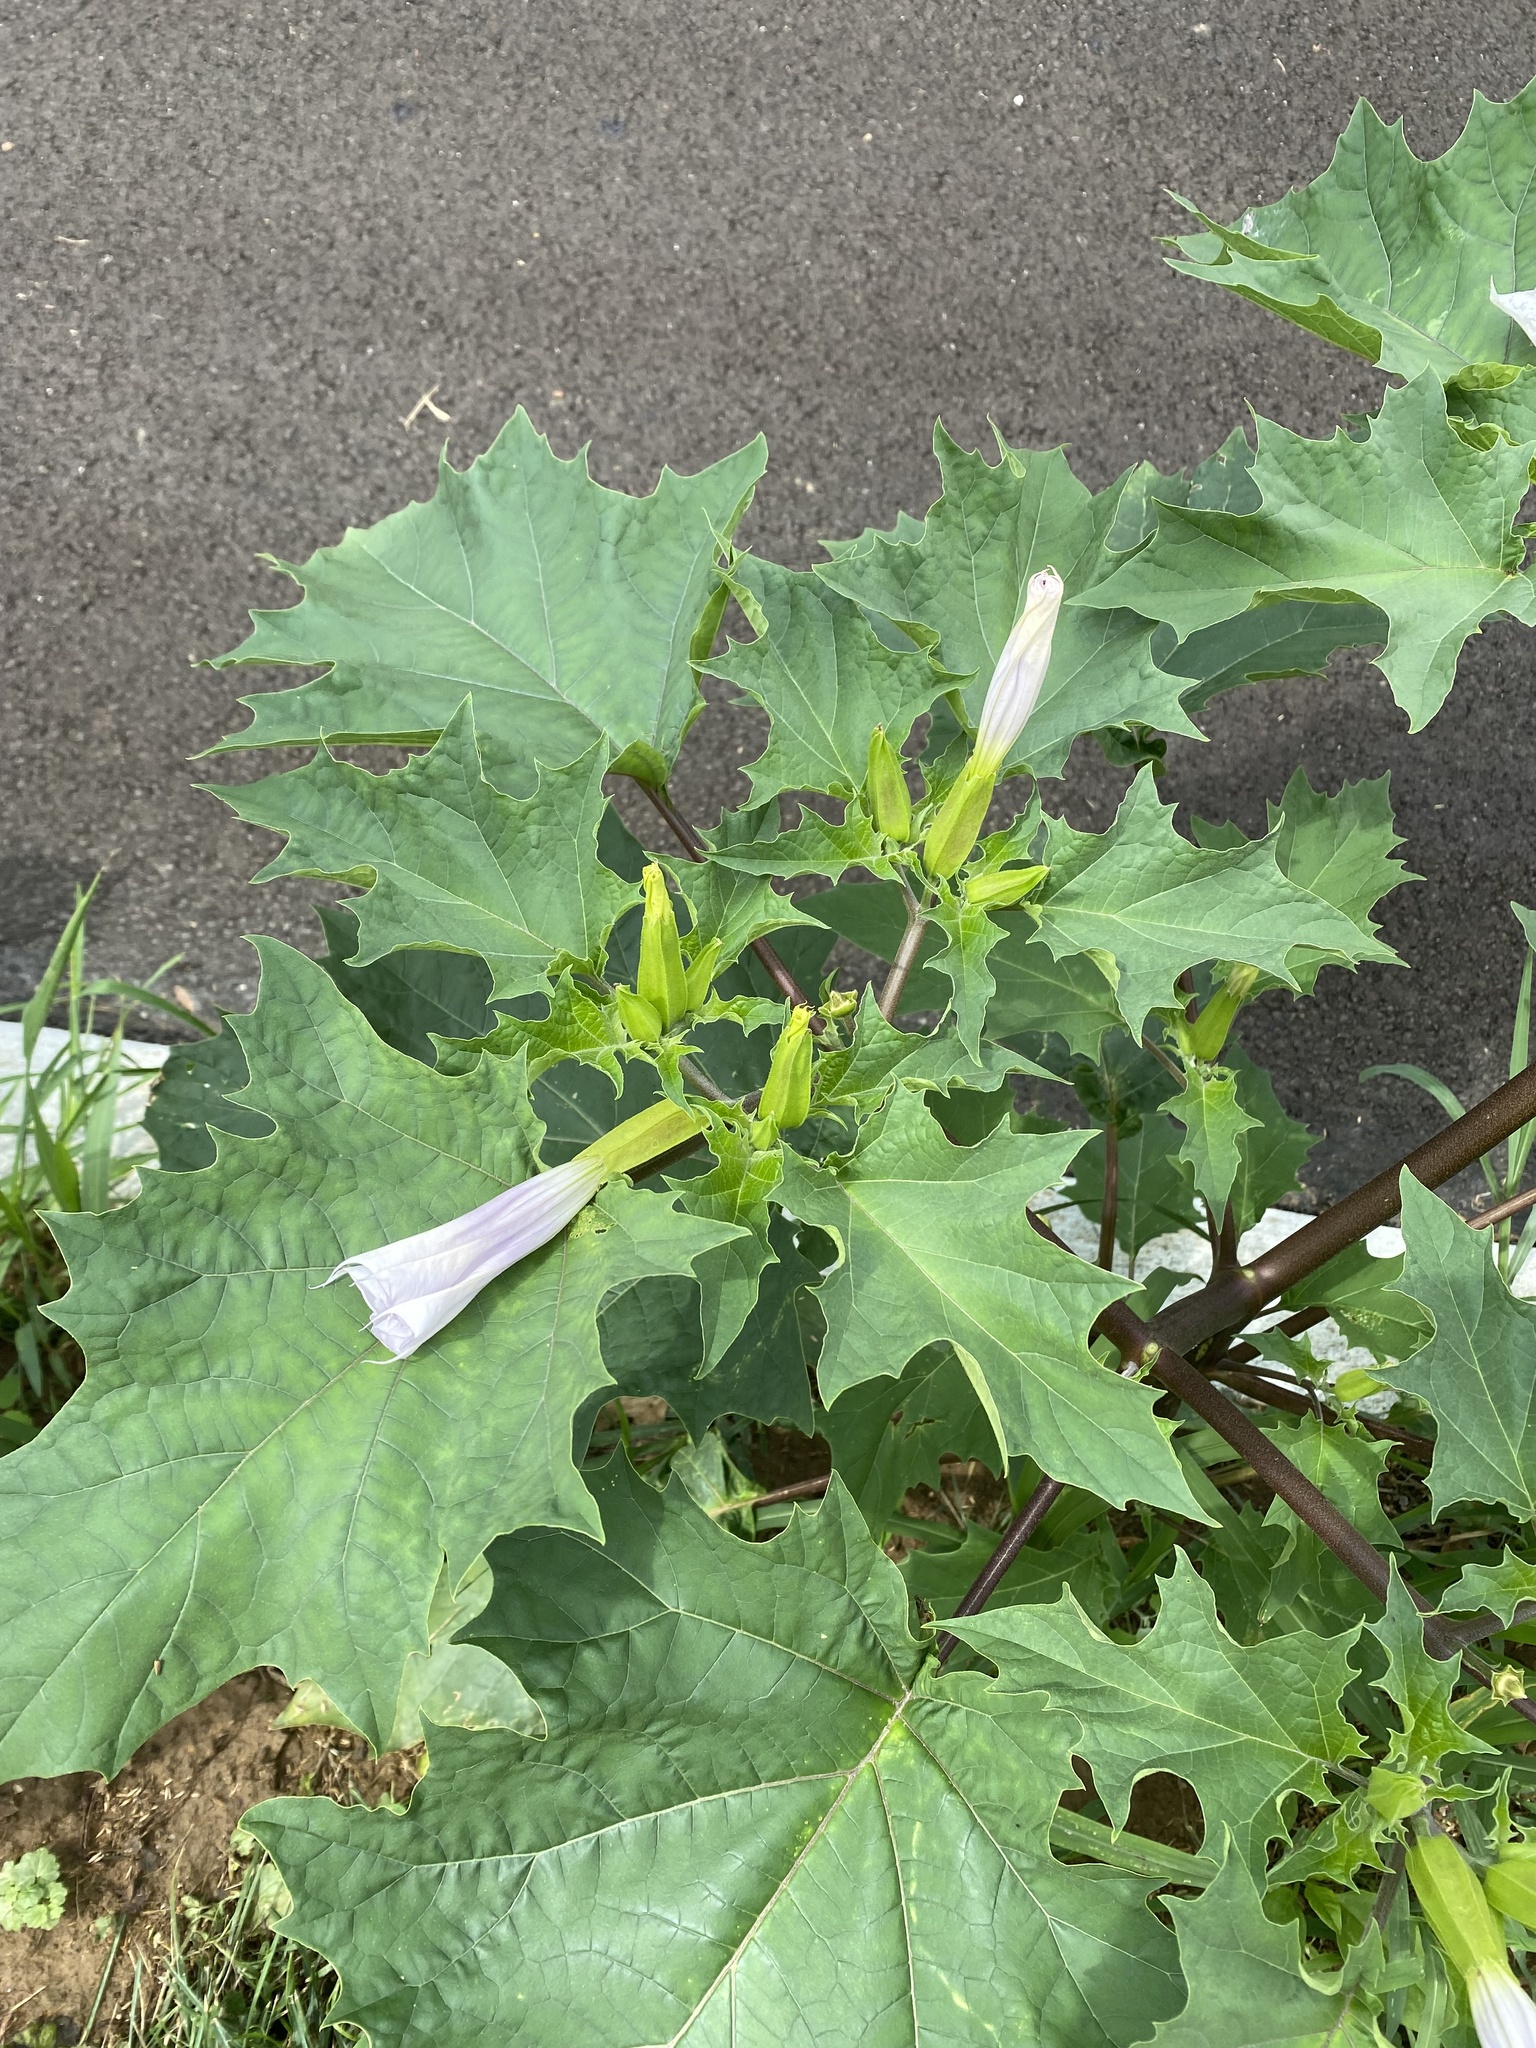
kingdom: Plantae
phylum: Tracheophyta
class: Magnoliopsida
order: Solanales
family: Solanaceae
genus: Datura
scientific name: Datura stramonium
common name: Thorn-apple
